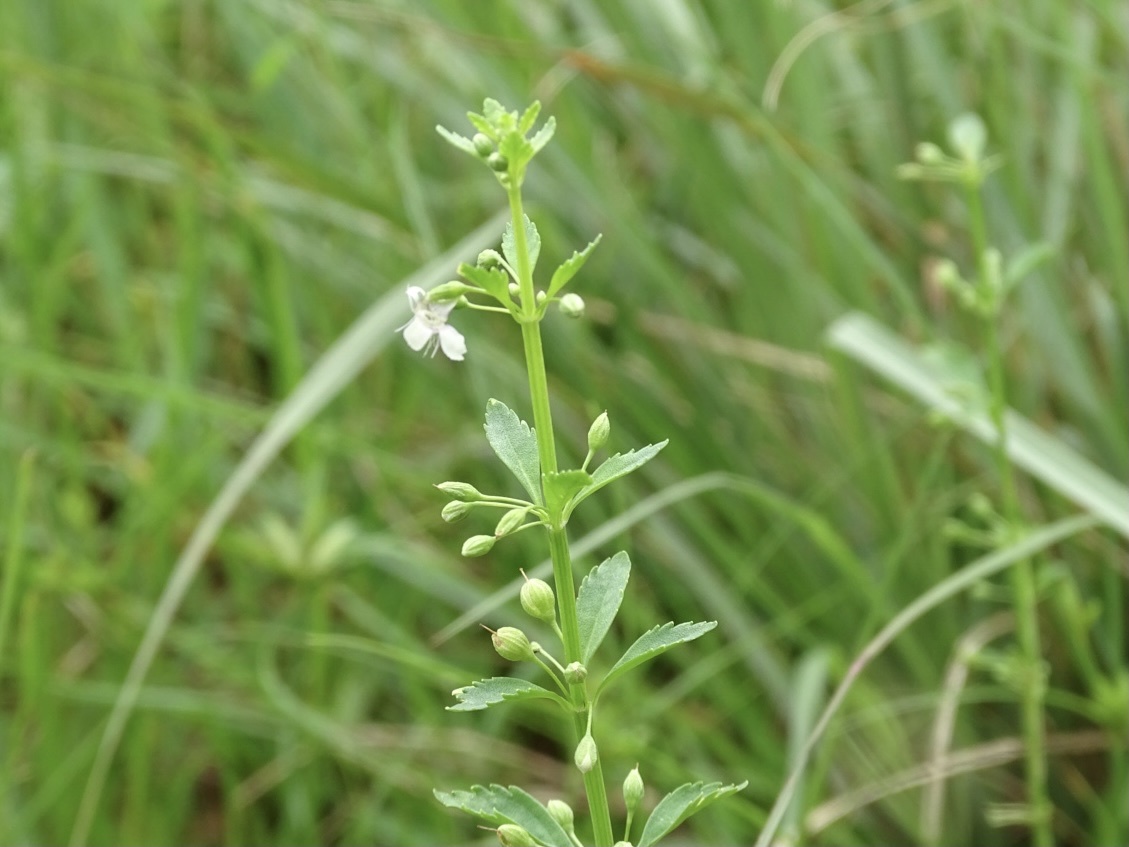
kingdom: Plantae
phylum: Tracheophyta
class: Magnoliopsida
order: Lamiales
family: Plantaginaceae
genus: Scoparia
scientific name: Scoparia dulcis
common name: Scoparia-weed
